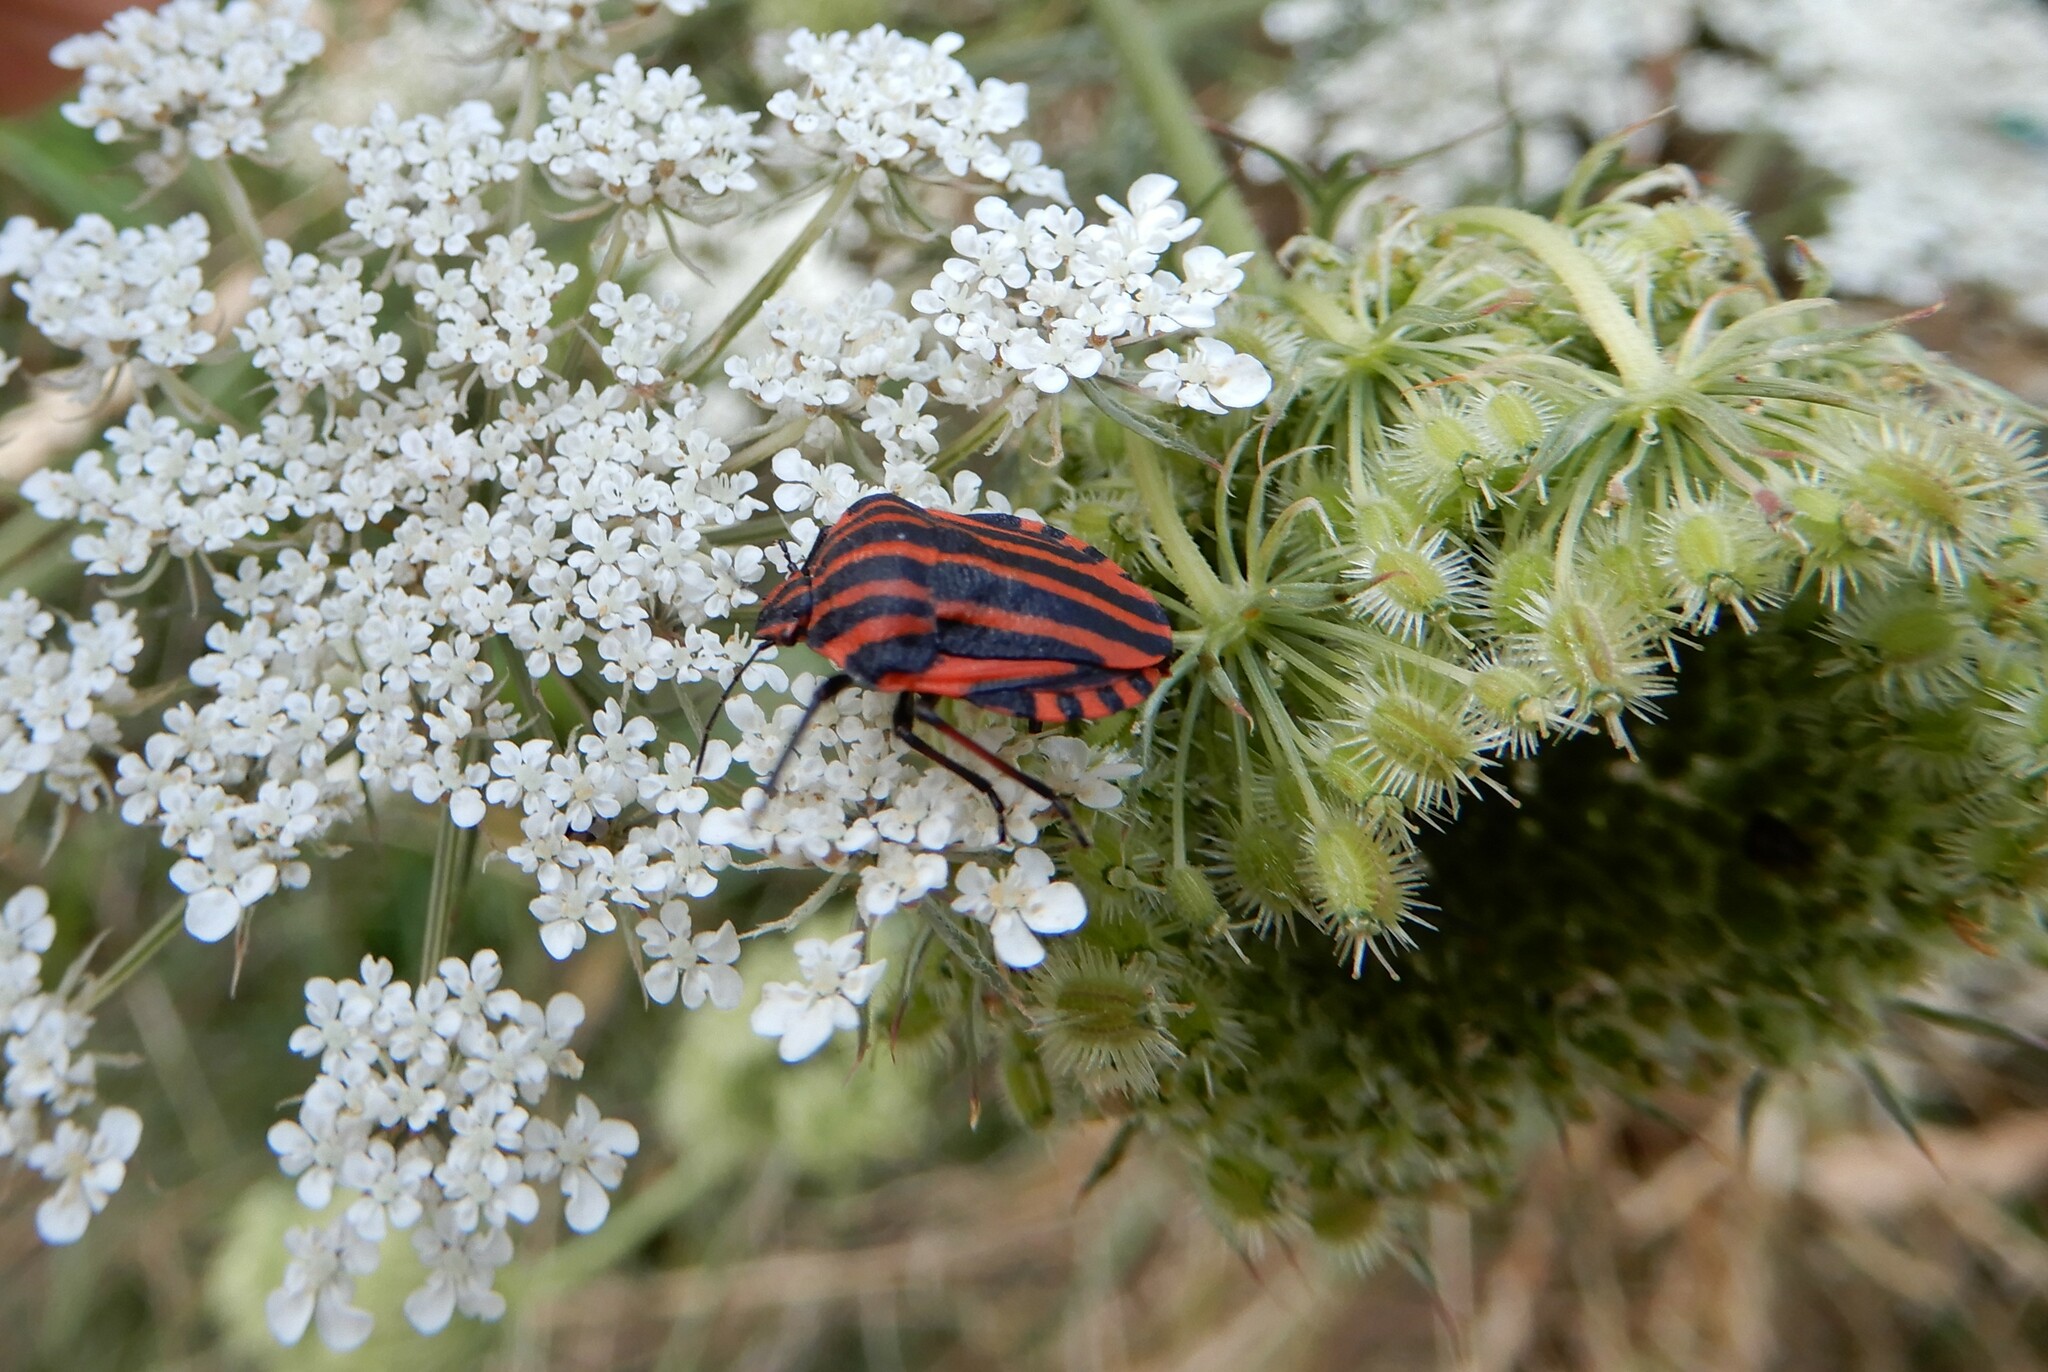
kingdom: Animalia
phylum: Arthropoda
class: Insecta
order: Hemiptera
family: Pentatomidae
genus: Graphosoma
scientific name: Graphosoma italicum
